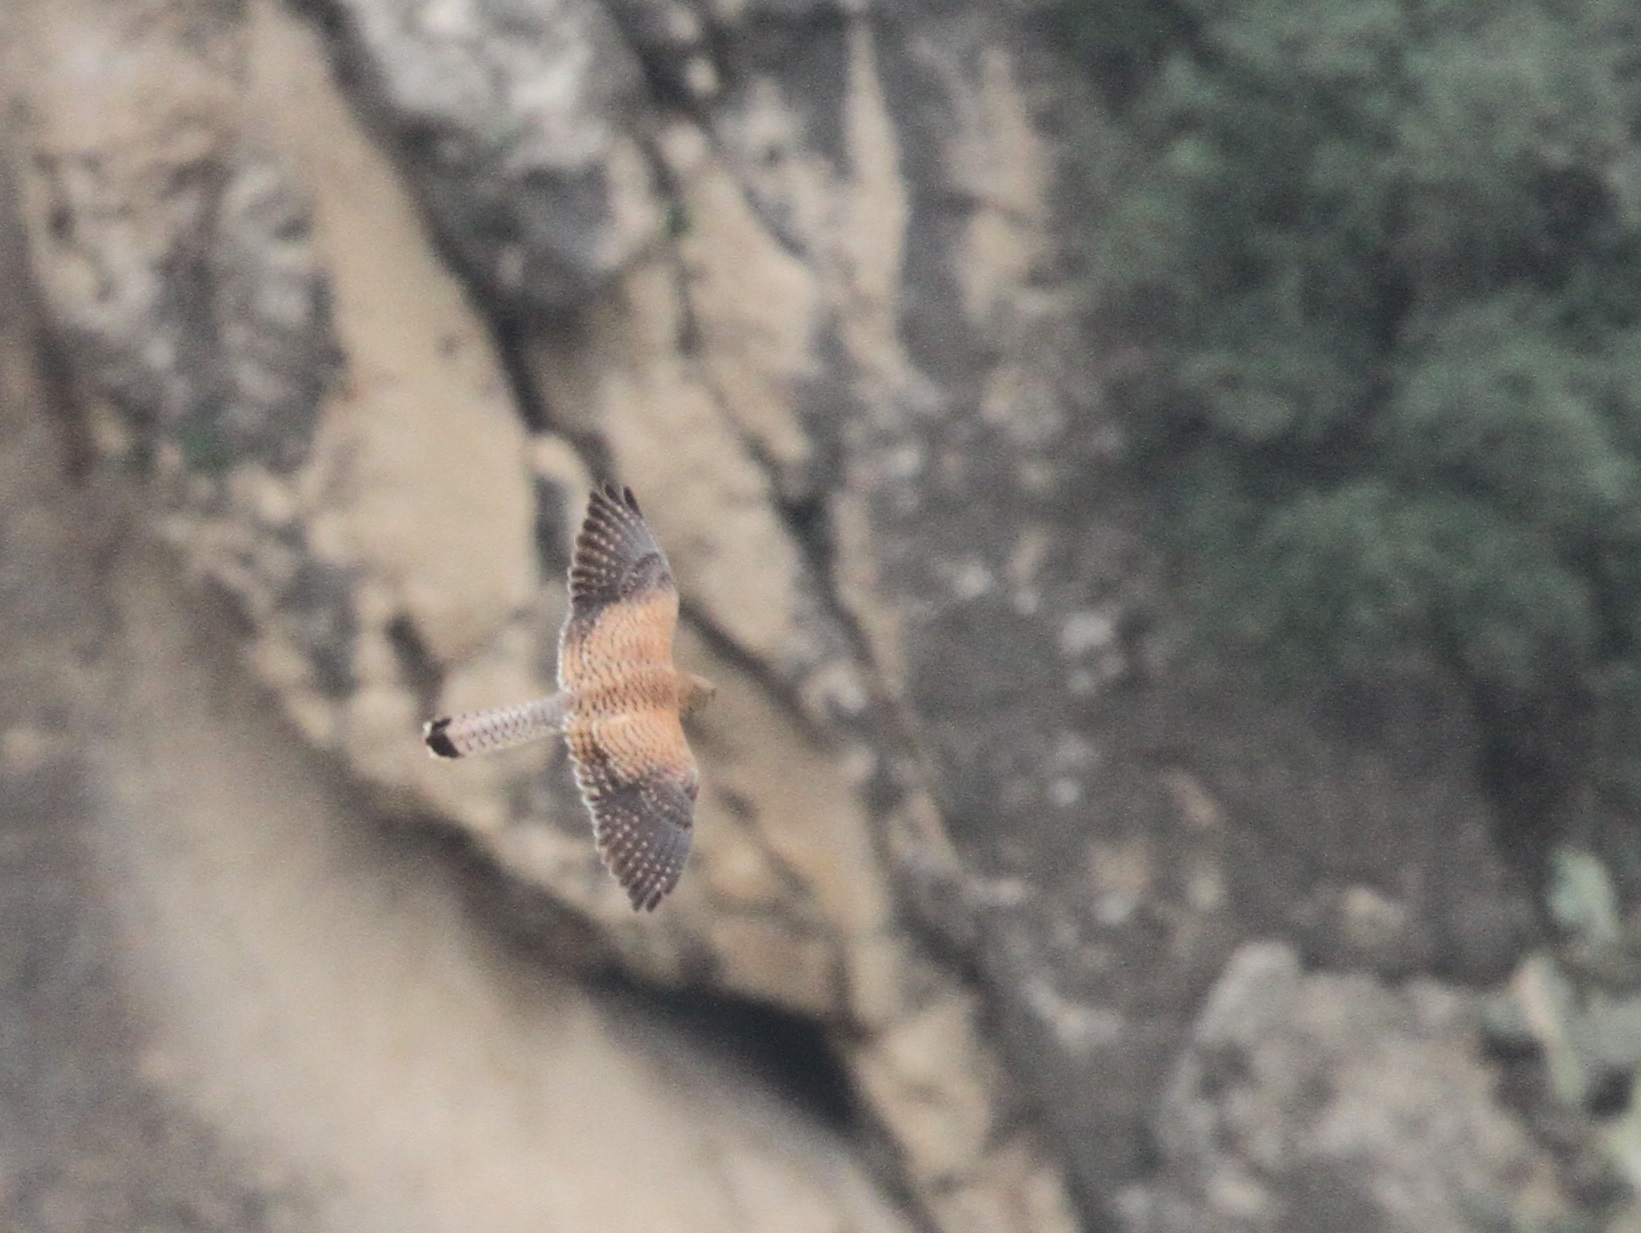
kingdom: Animalia
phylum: Chordata
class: Aves
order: Falconiformes
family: Falconidae
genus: Falco
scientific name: Falco tinnunculus
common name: Common kestrel
